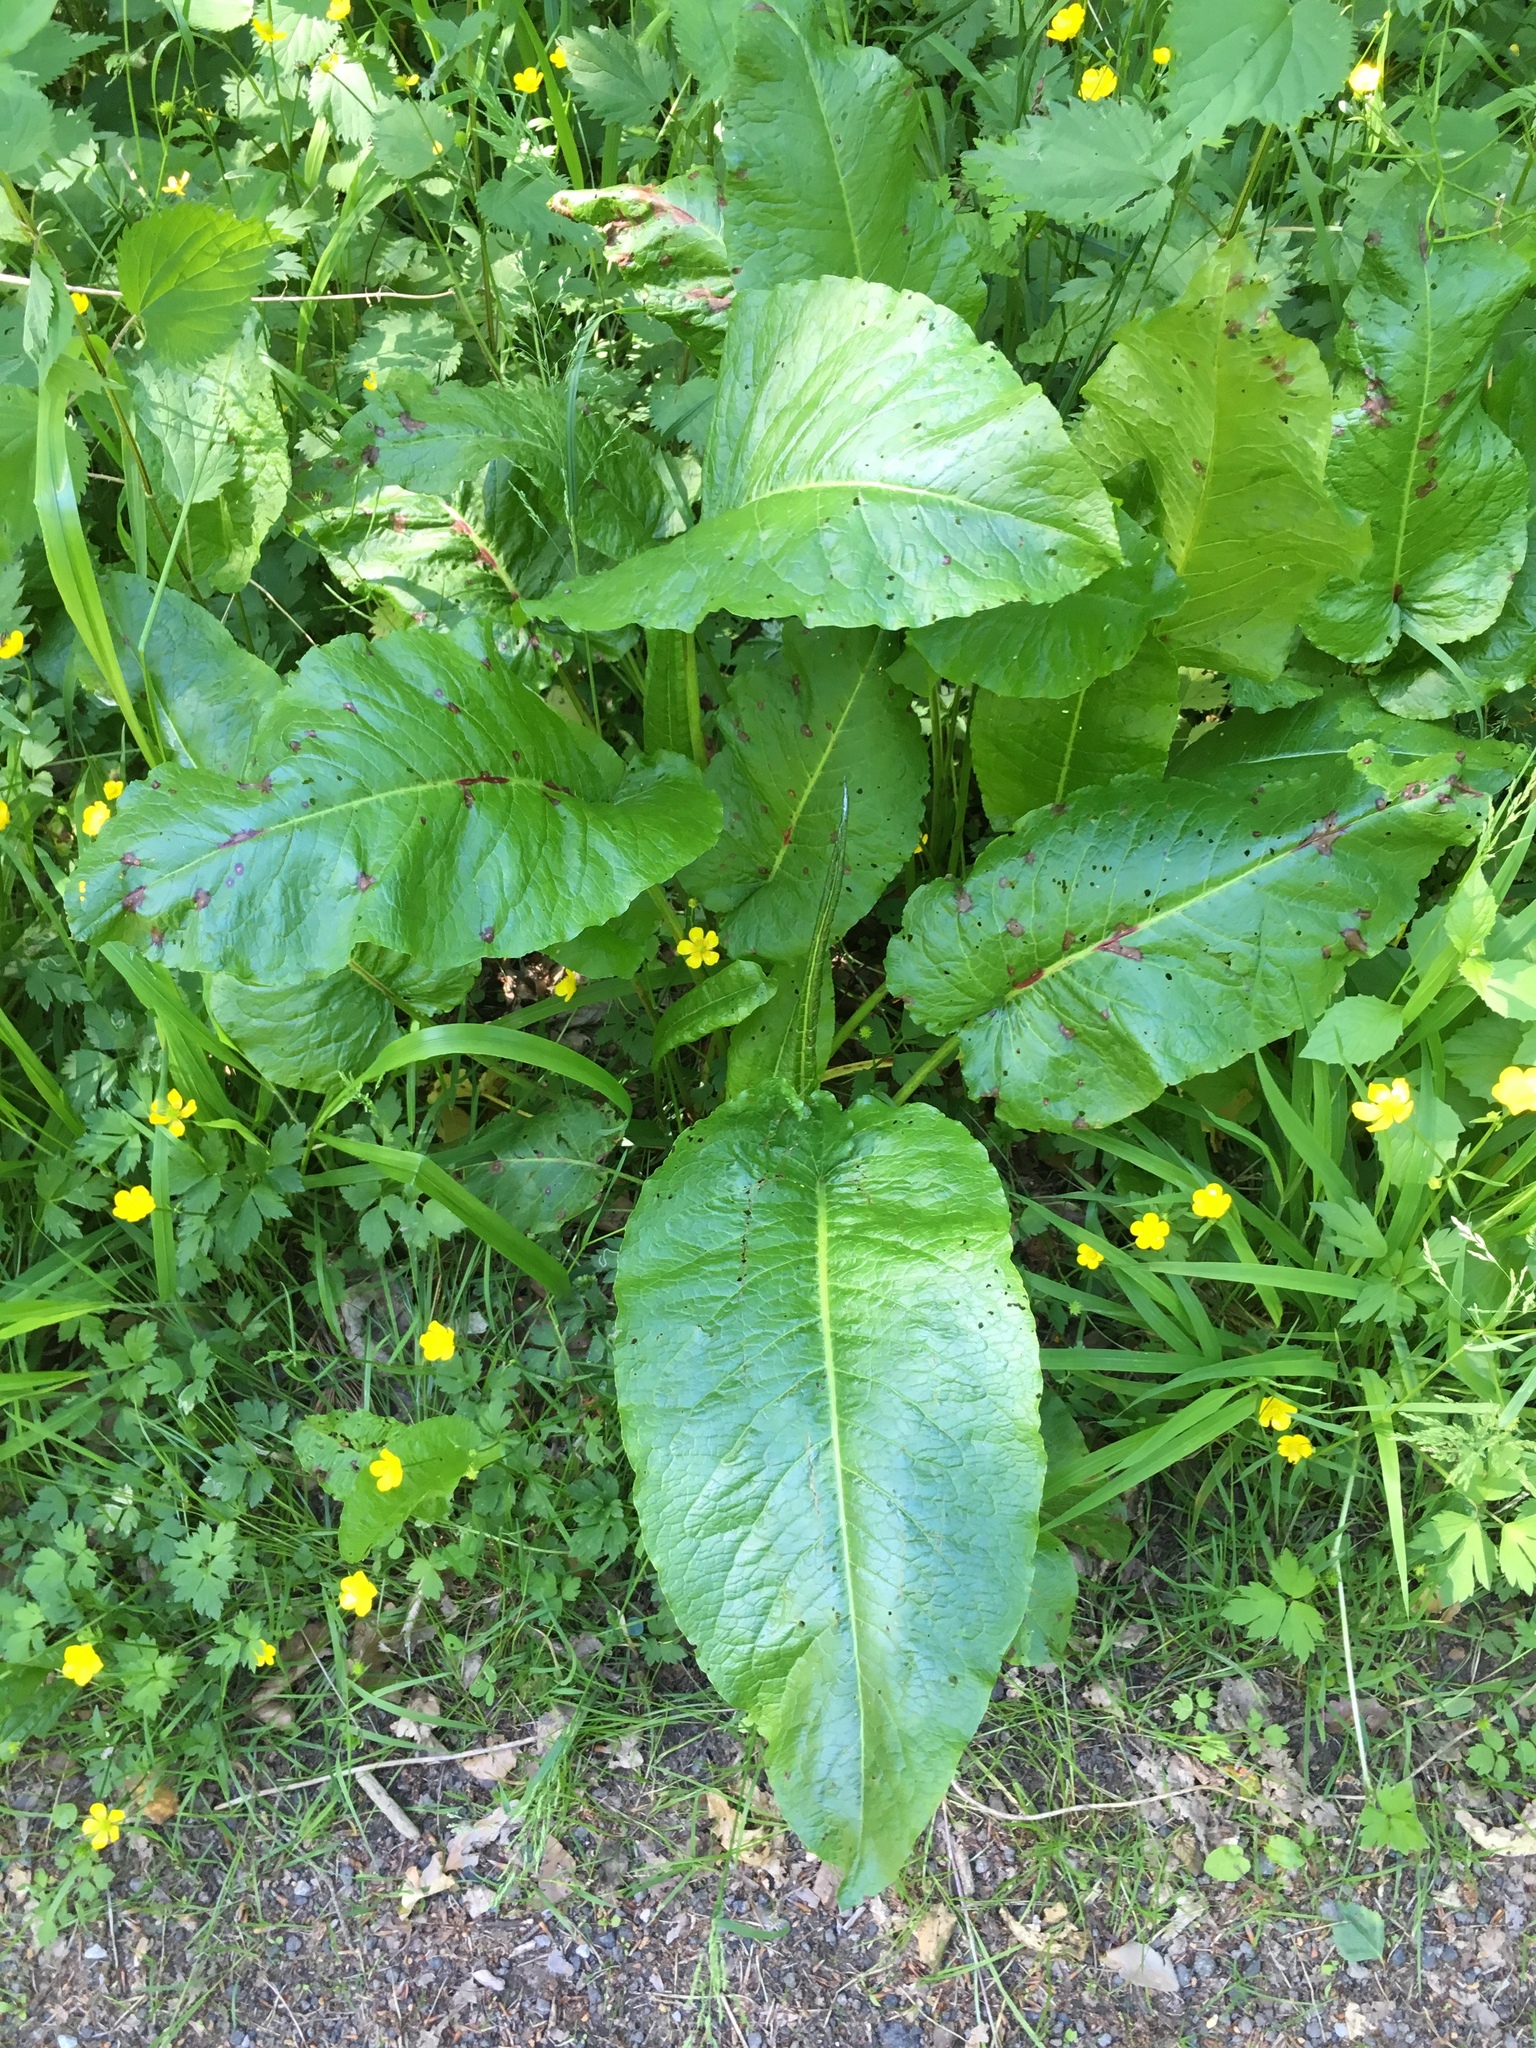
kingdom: Plantae
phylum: Tracheophyta
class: Magnoliopsida
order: Caryophyllales
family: Polygonaceae
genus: Rumex
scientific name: Rumex obtusifolius
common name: Bitter dock
